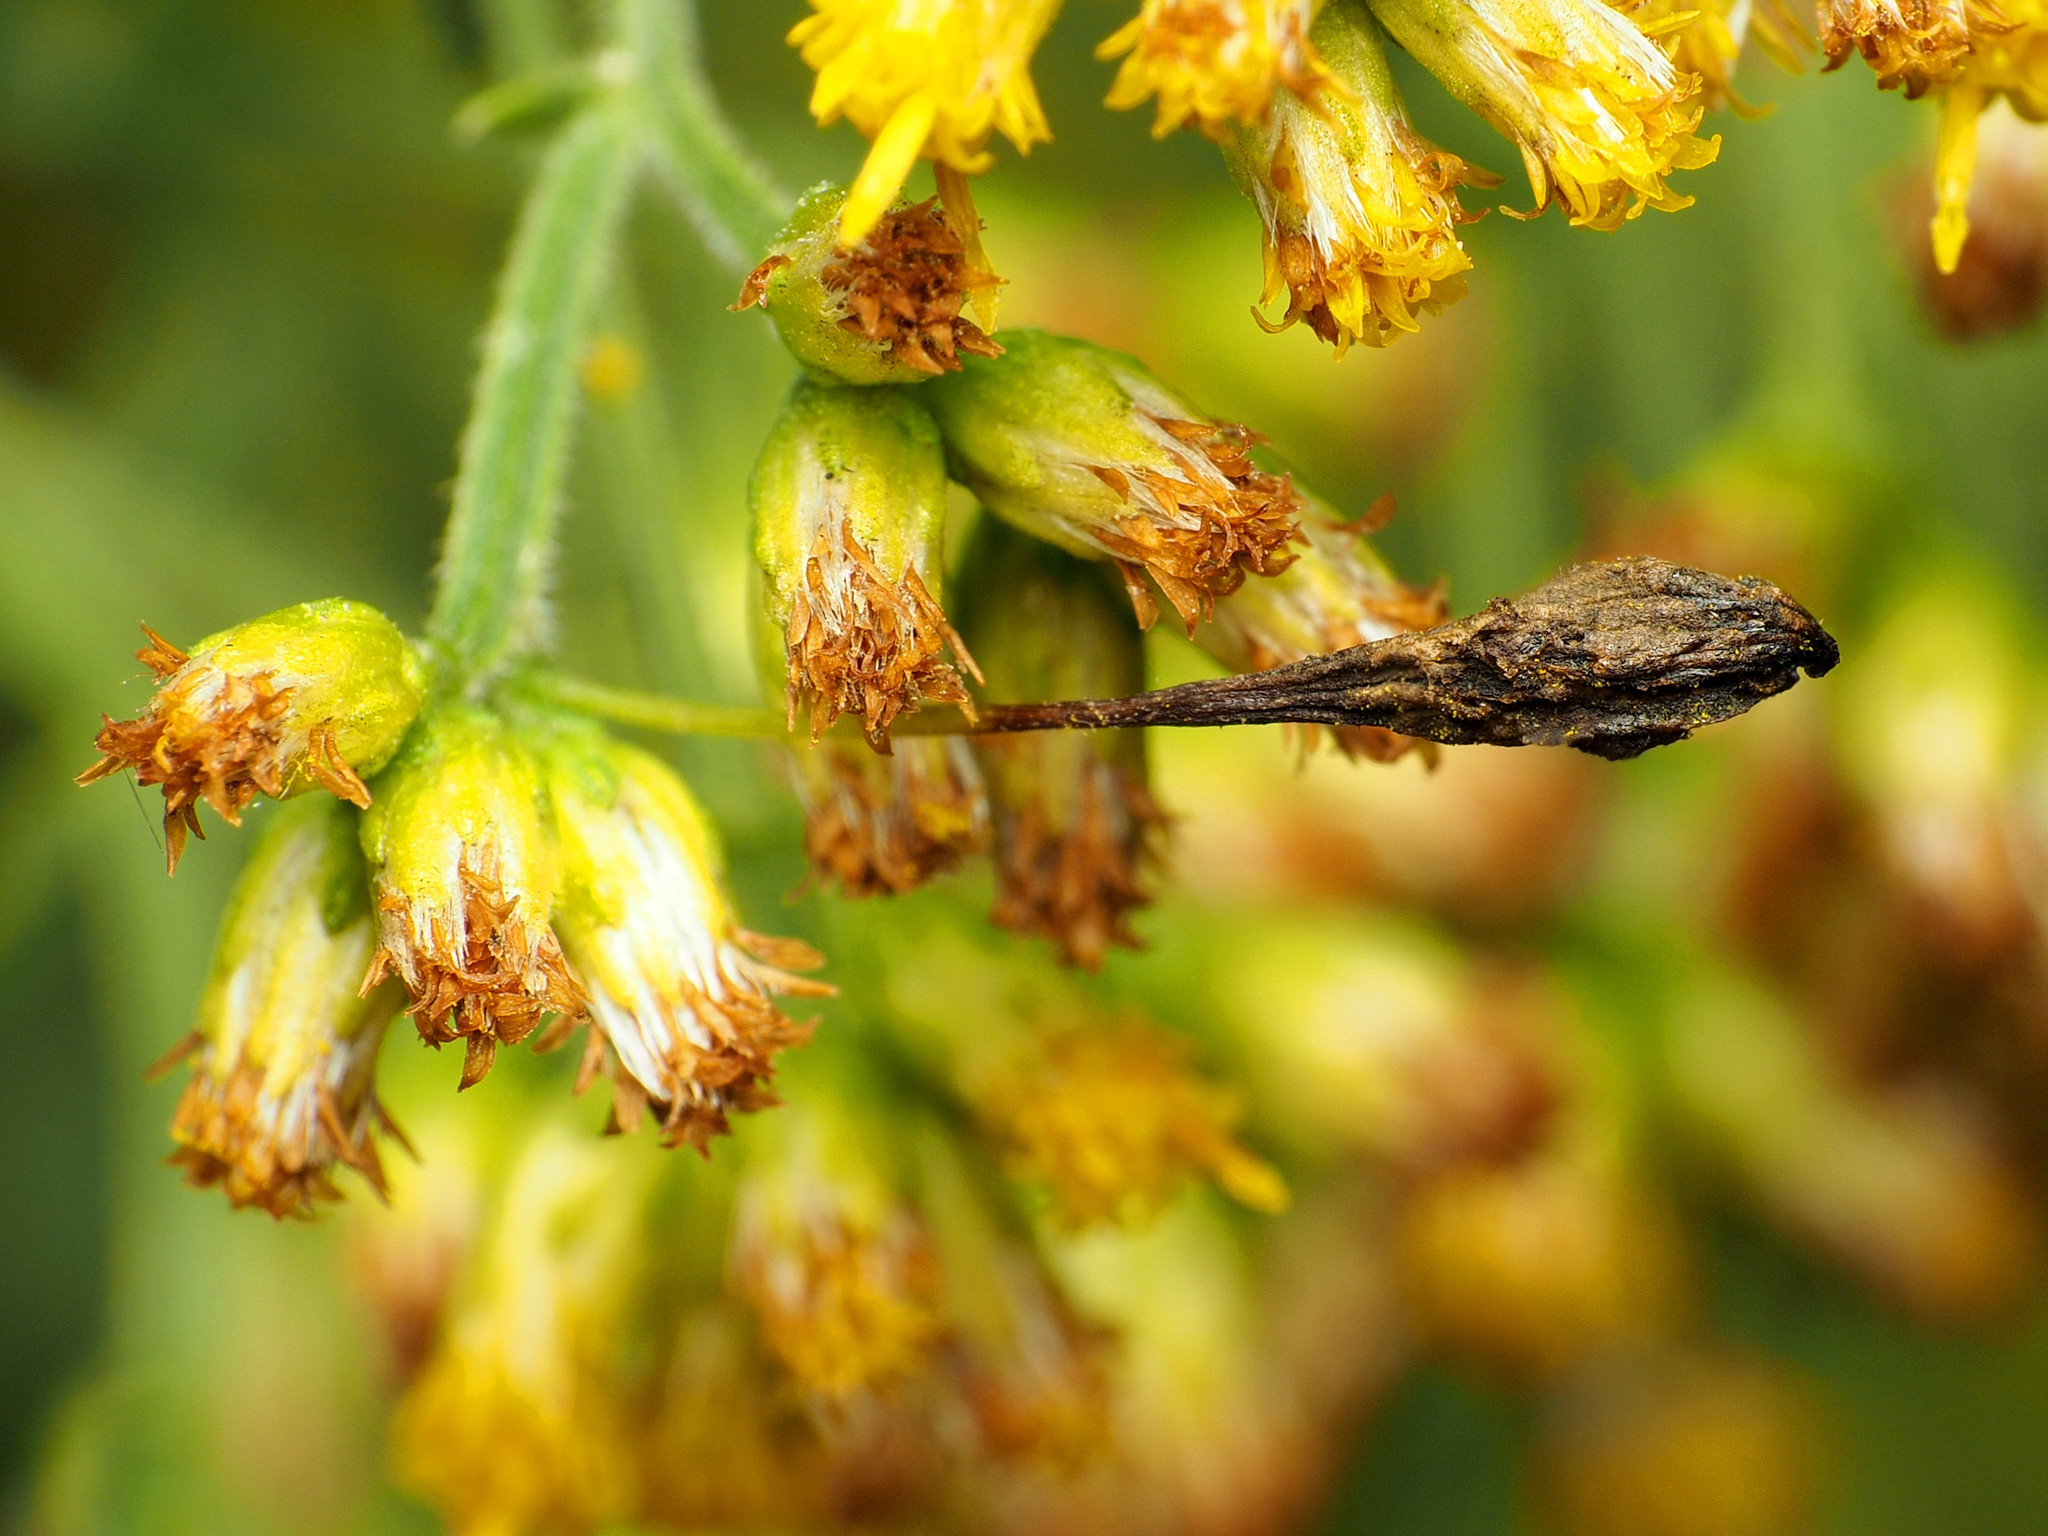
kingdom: Animalia
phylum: Arthropoda
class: Insecta
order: Diptera
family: Cecidomyiidae
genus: Rhopalomyia
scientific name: Rhopalomyia pedicellata
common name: Goldentop pedicellate gall midge
